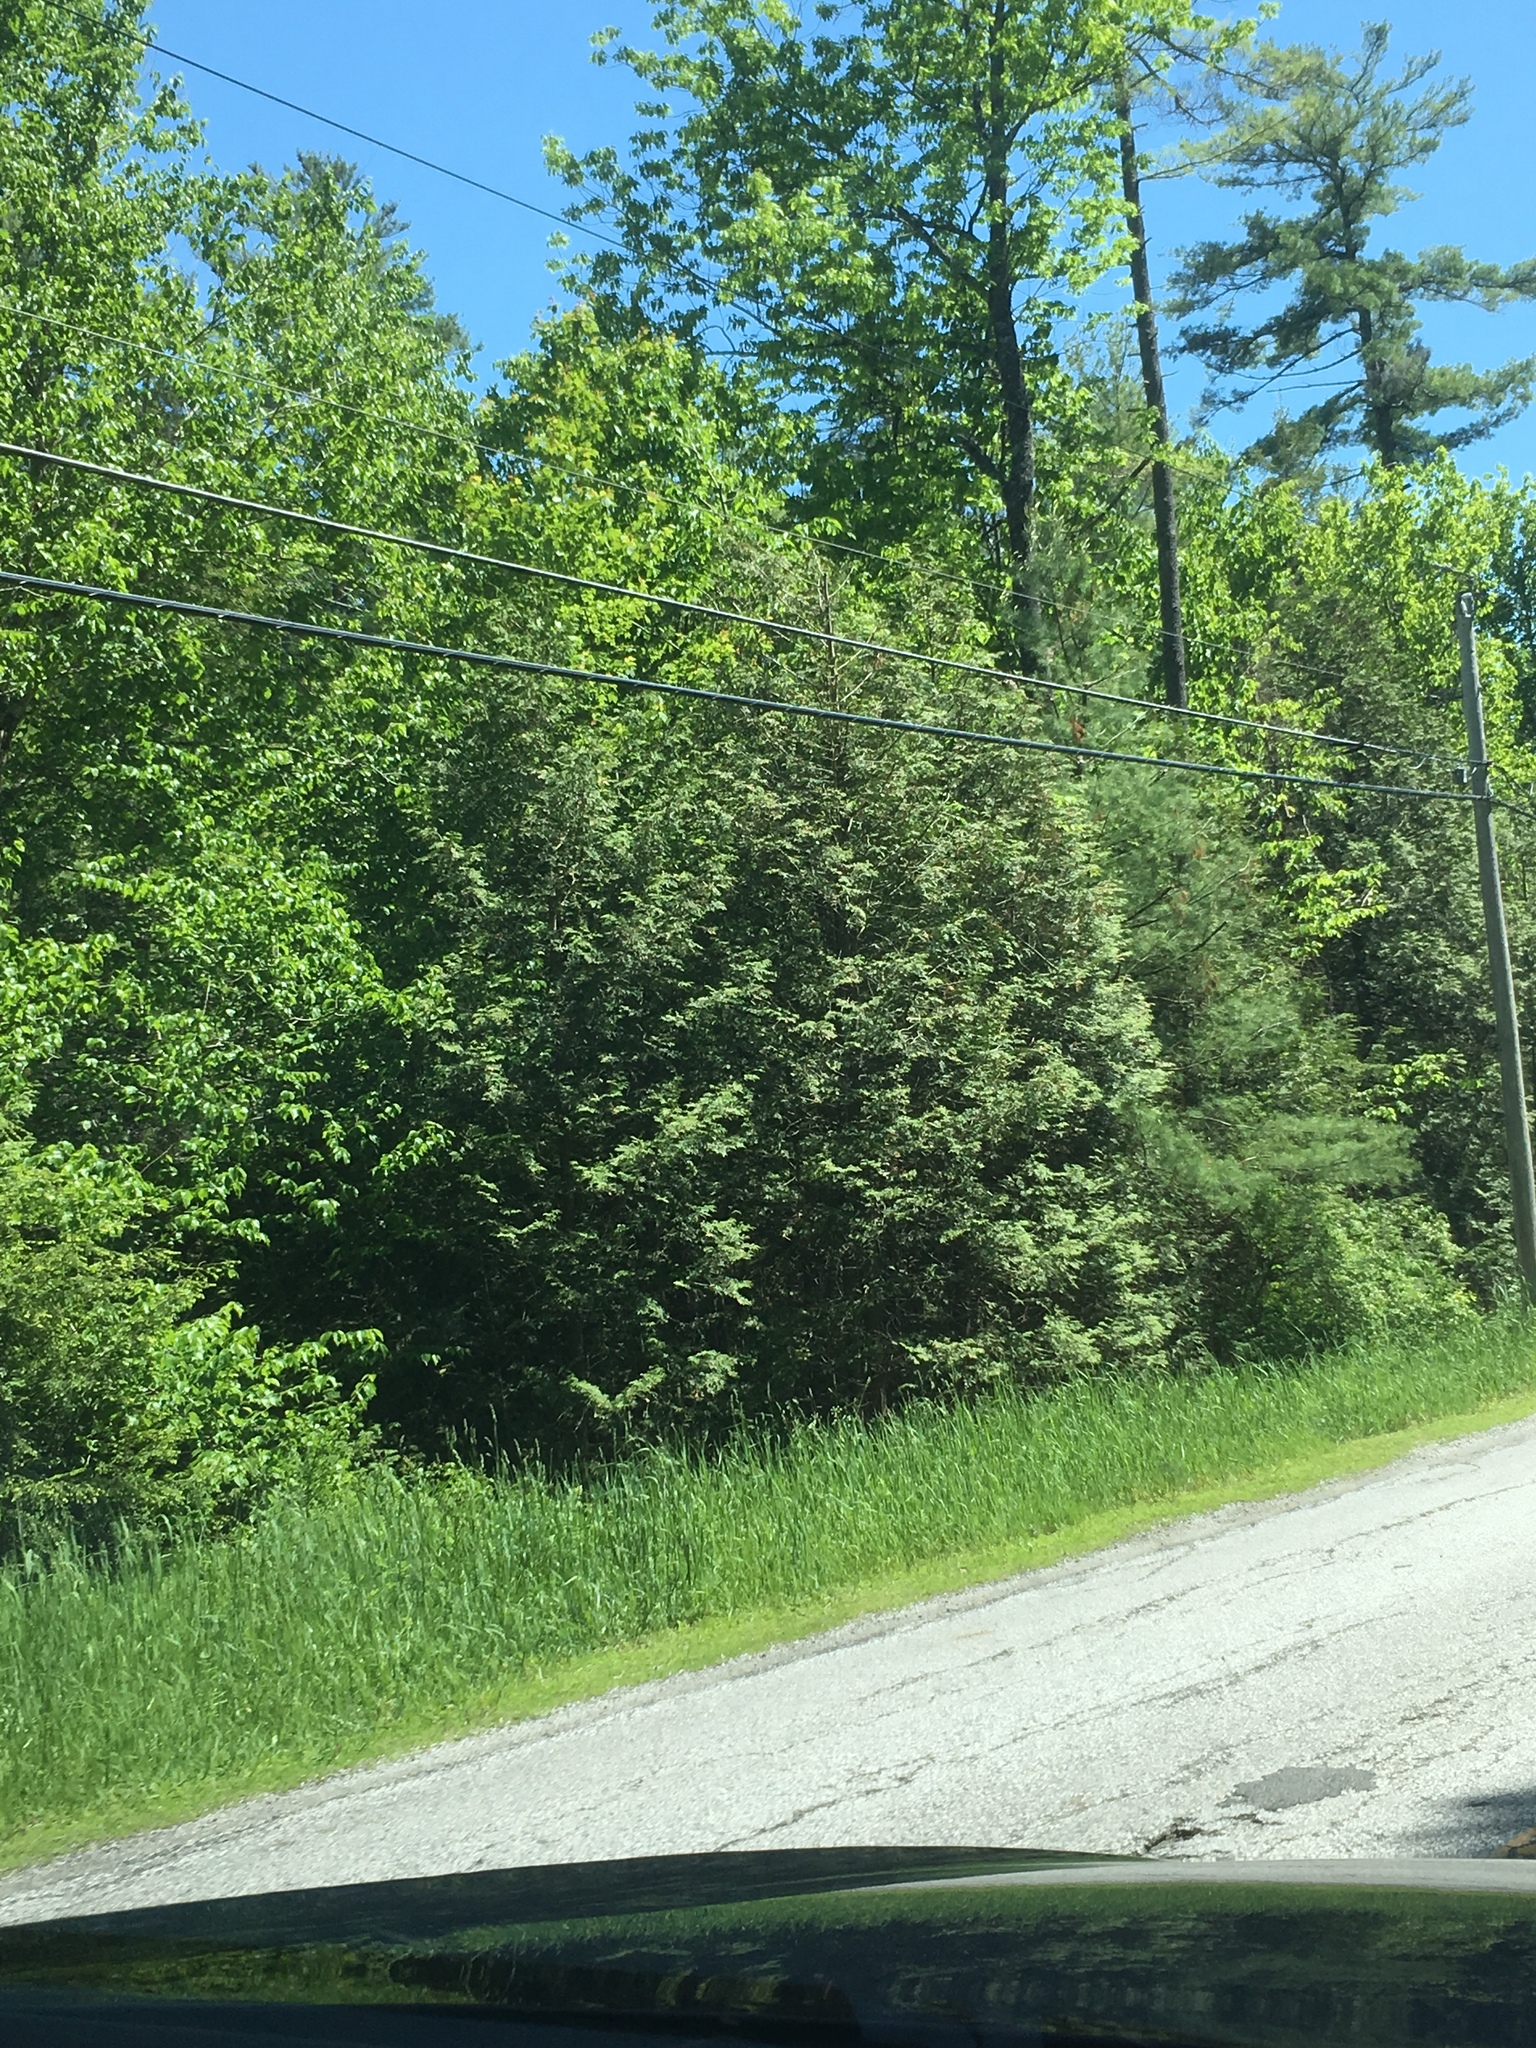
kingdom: Plantae
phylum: Tracheophyta
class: Pinopsida
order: Pinales
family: Cupressaceae
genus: Thuja
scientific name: Thuja occidentalis
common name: Northern white-cedar
